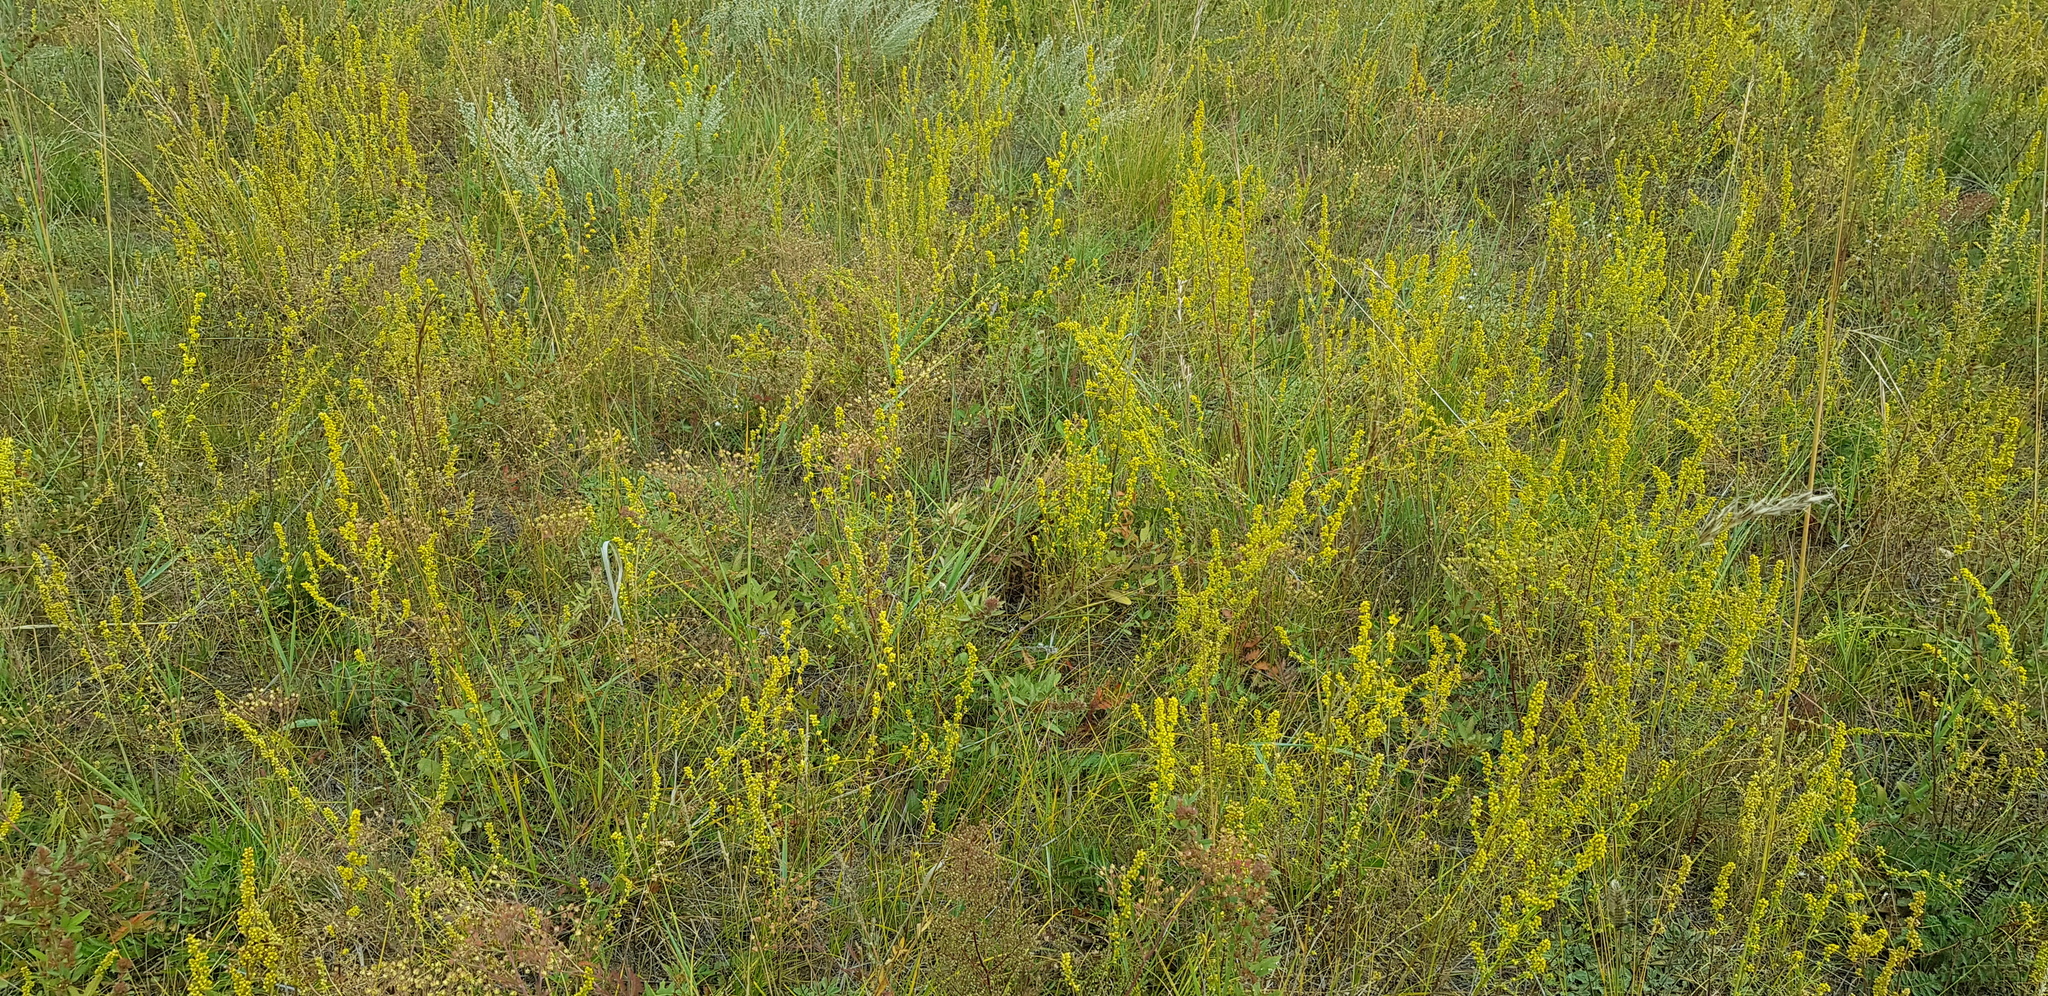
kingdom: Plantae
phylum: Tracheophyta
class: Magnoliopsida
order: Asterales
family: Asteraceae
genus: Artemisia
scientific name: Artemisia palustris
